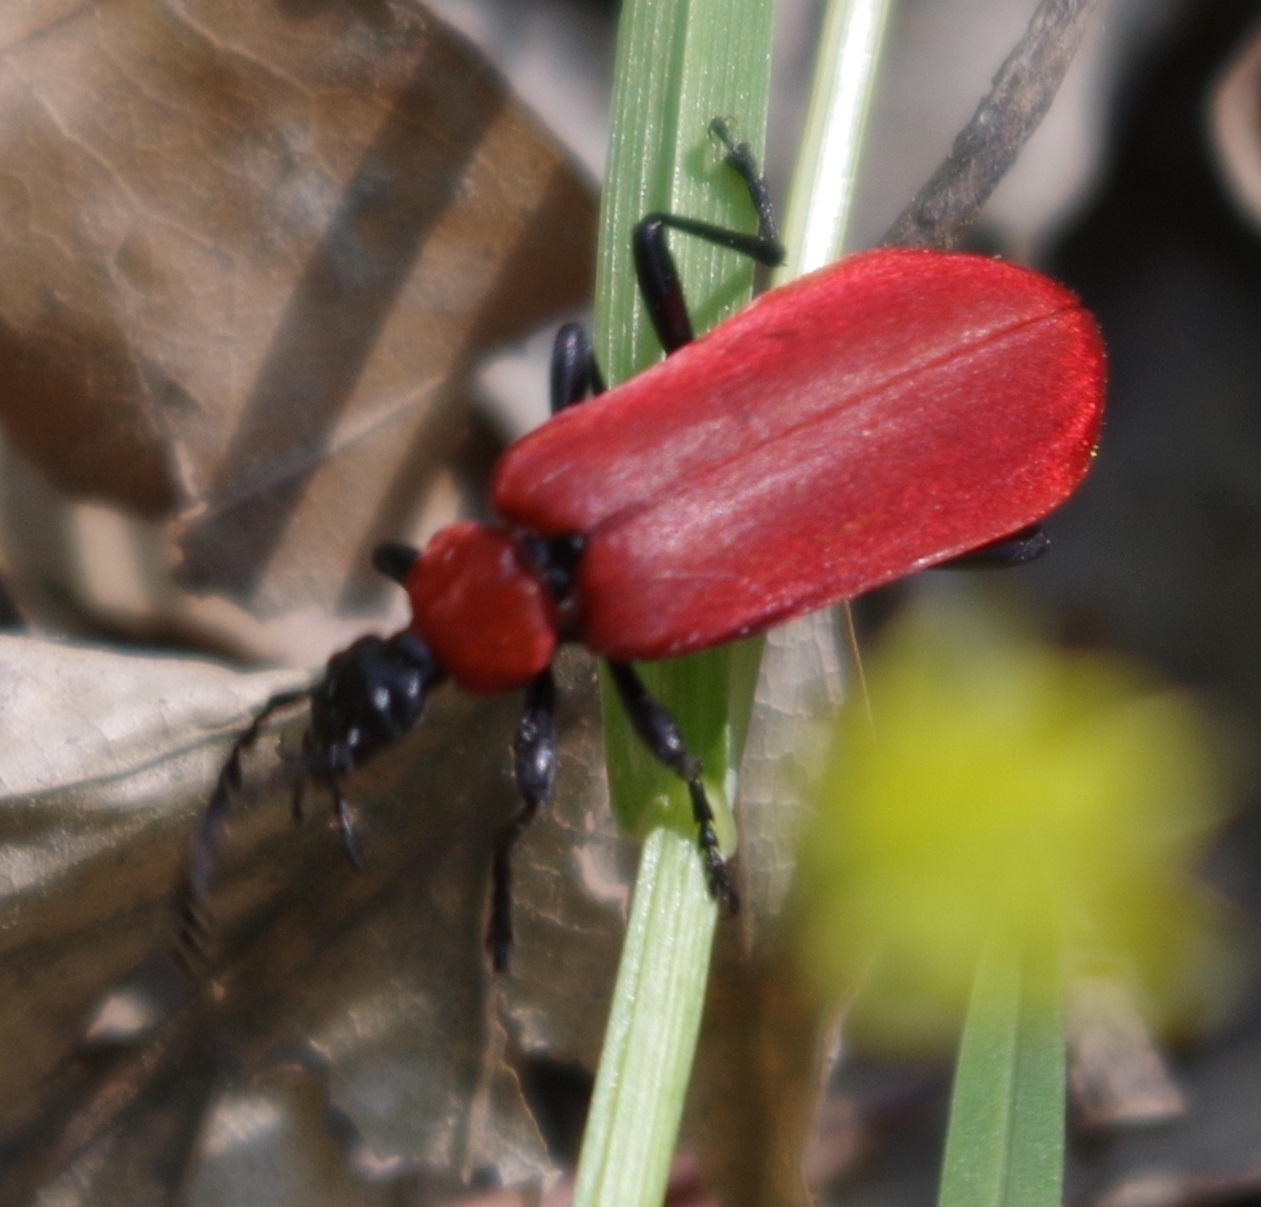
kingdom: Animalia
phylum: Arthropoda
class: Insecta
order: Coleoptera
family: Pyrochroidae
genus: Pyrochroa
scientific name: Pyrochroa coccinea
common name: Black-headed cardinal beetle
